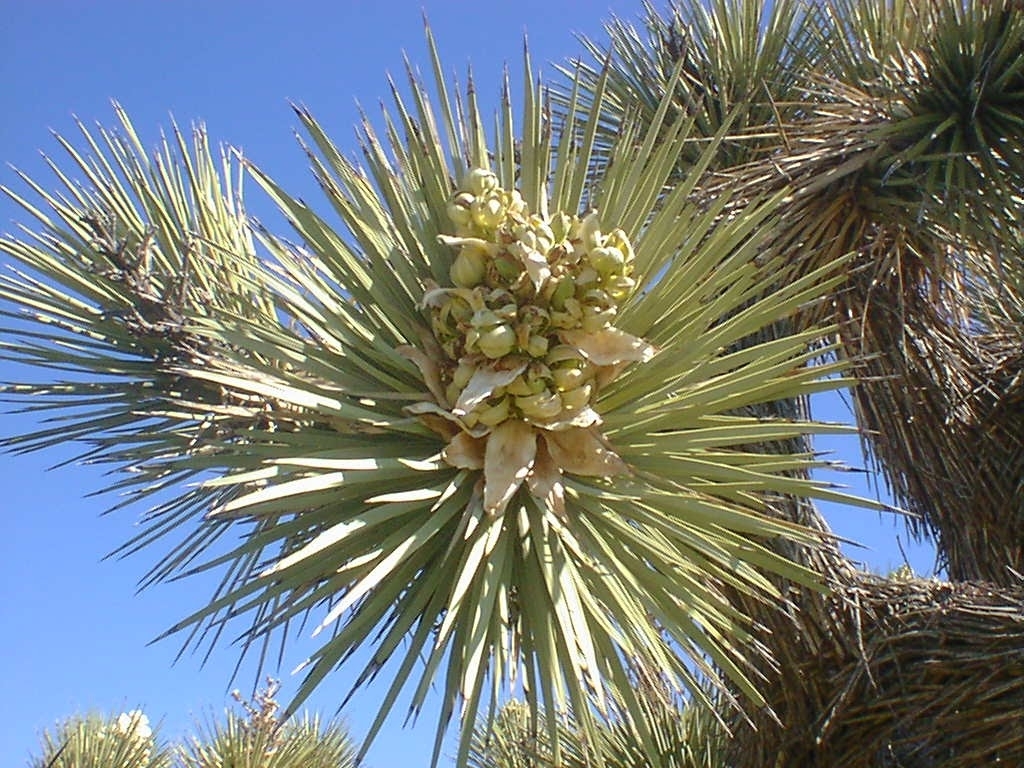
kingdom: Plantae
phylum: Tracheophyta
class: Liliopsida
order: Asparagales
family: Asparagaceae
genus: Yucca
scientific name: Yucca brevifolia
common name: Joshua tree
